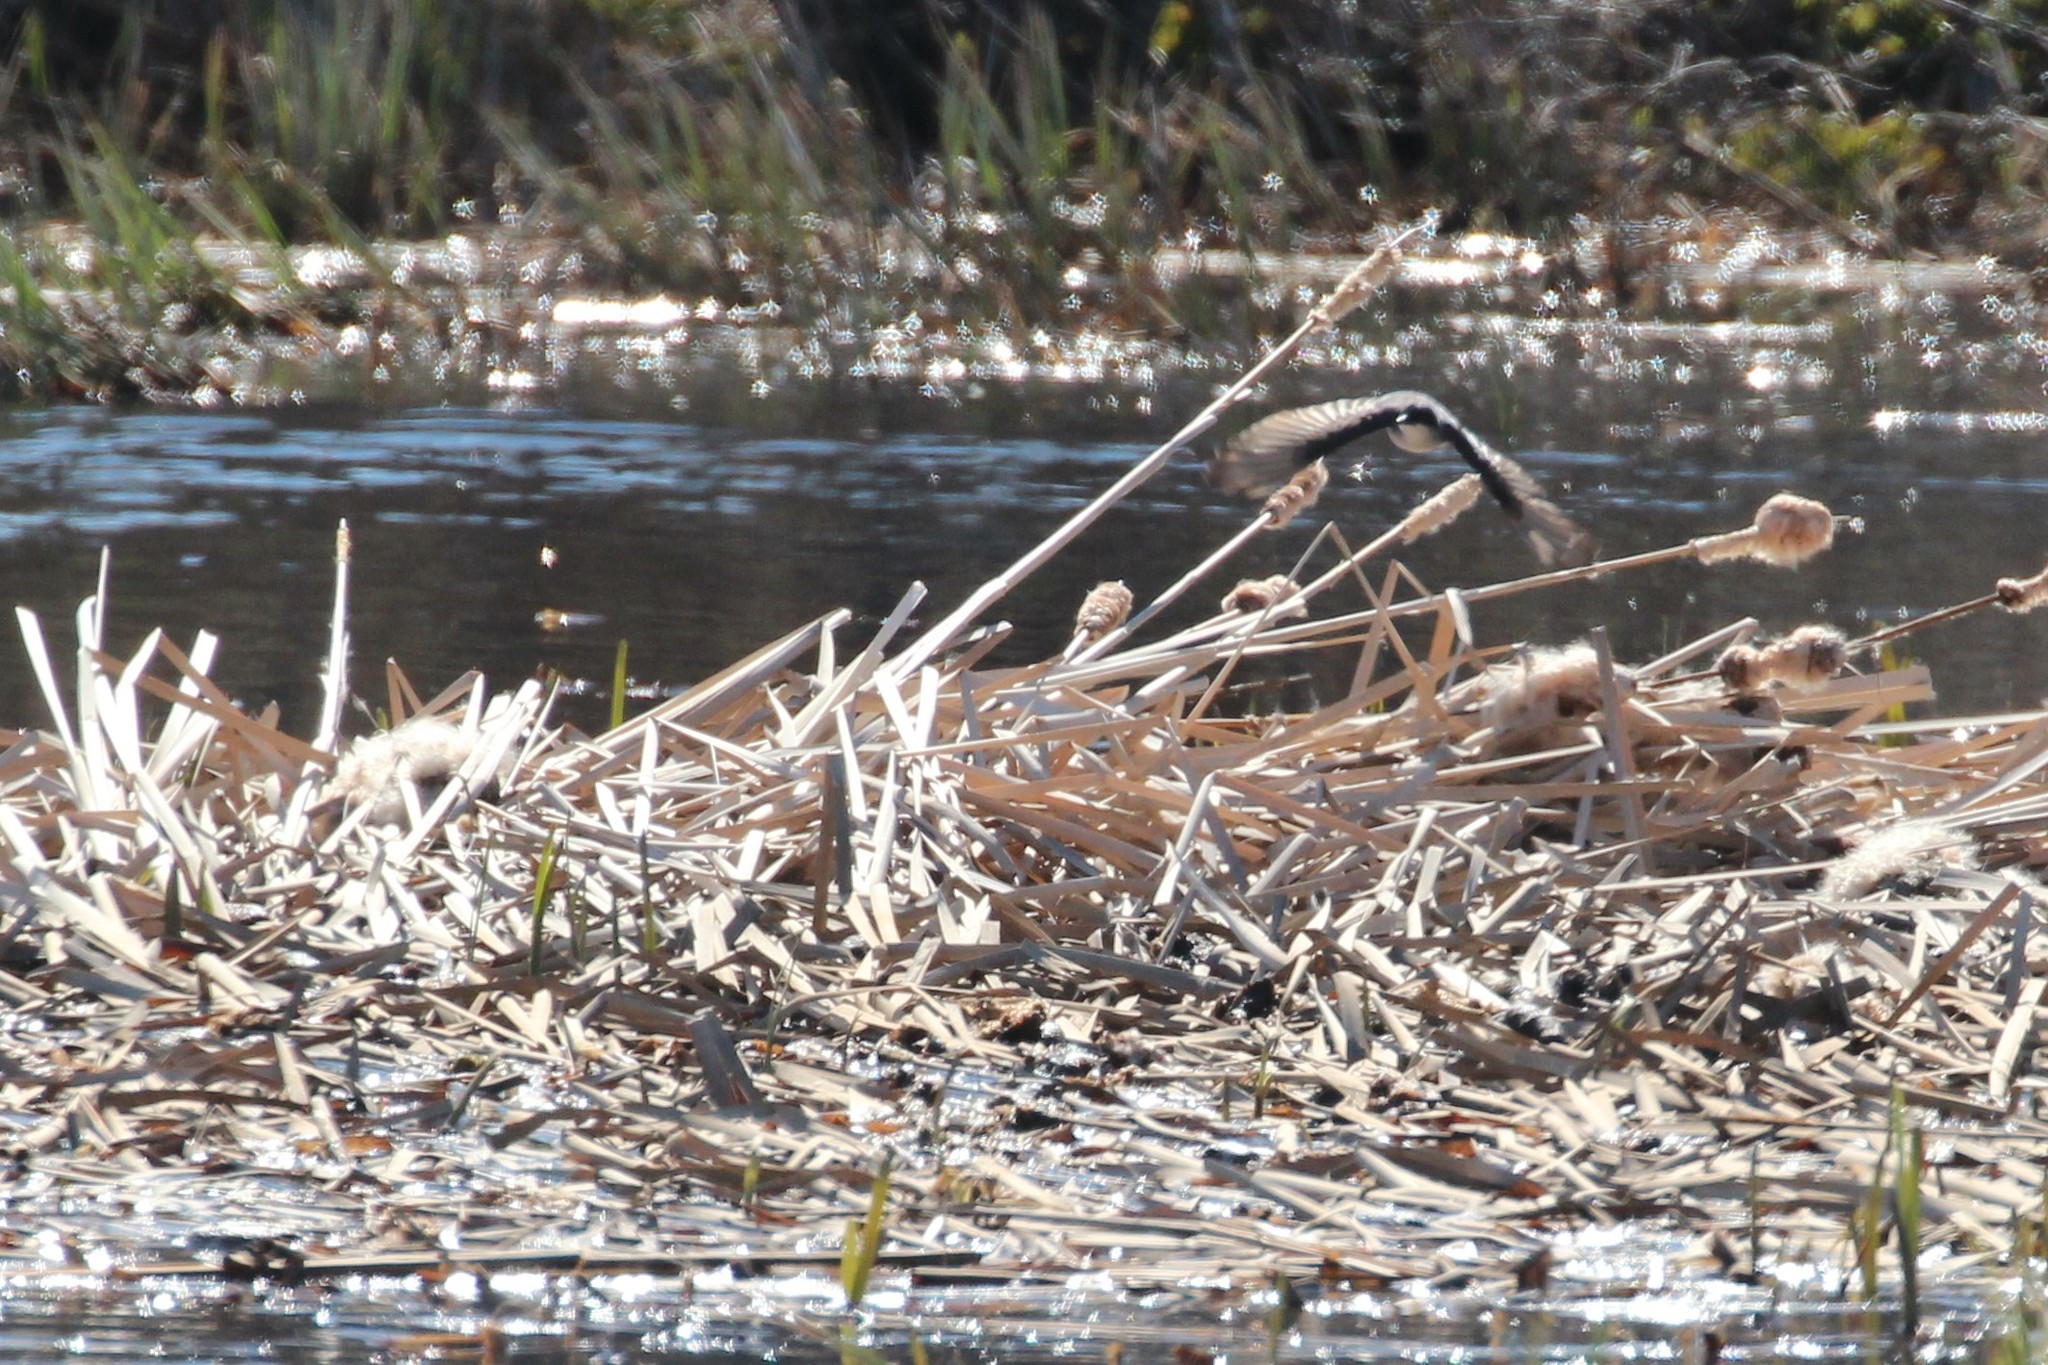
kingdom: Animalia
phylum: Chordata
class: Aves
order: Passeriformes
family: Tyrannidae
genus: Tyrannus
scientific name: Tyrannus tyrannus
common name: Eastern kingbird
